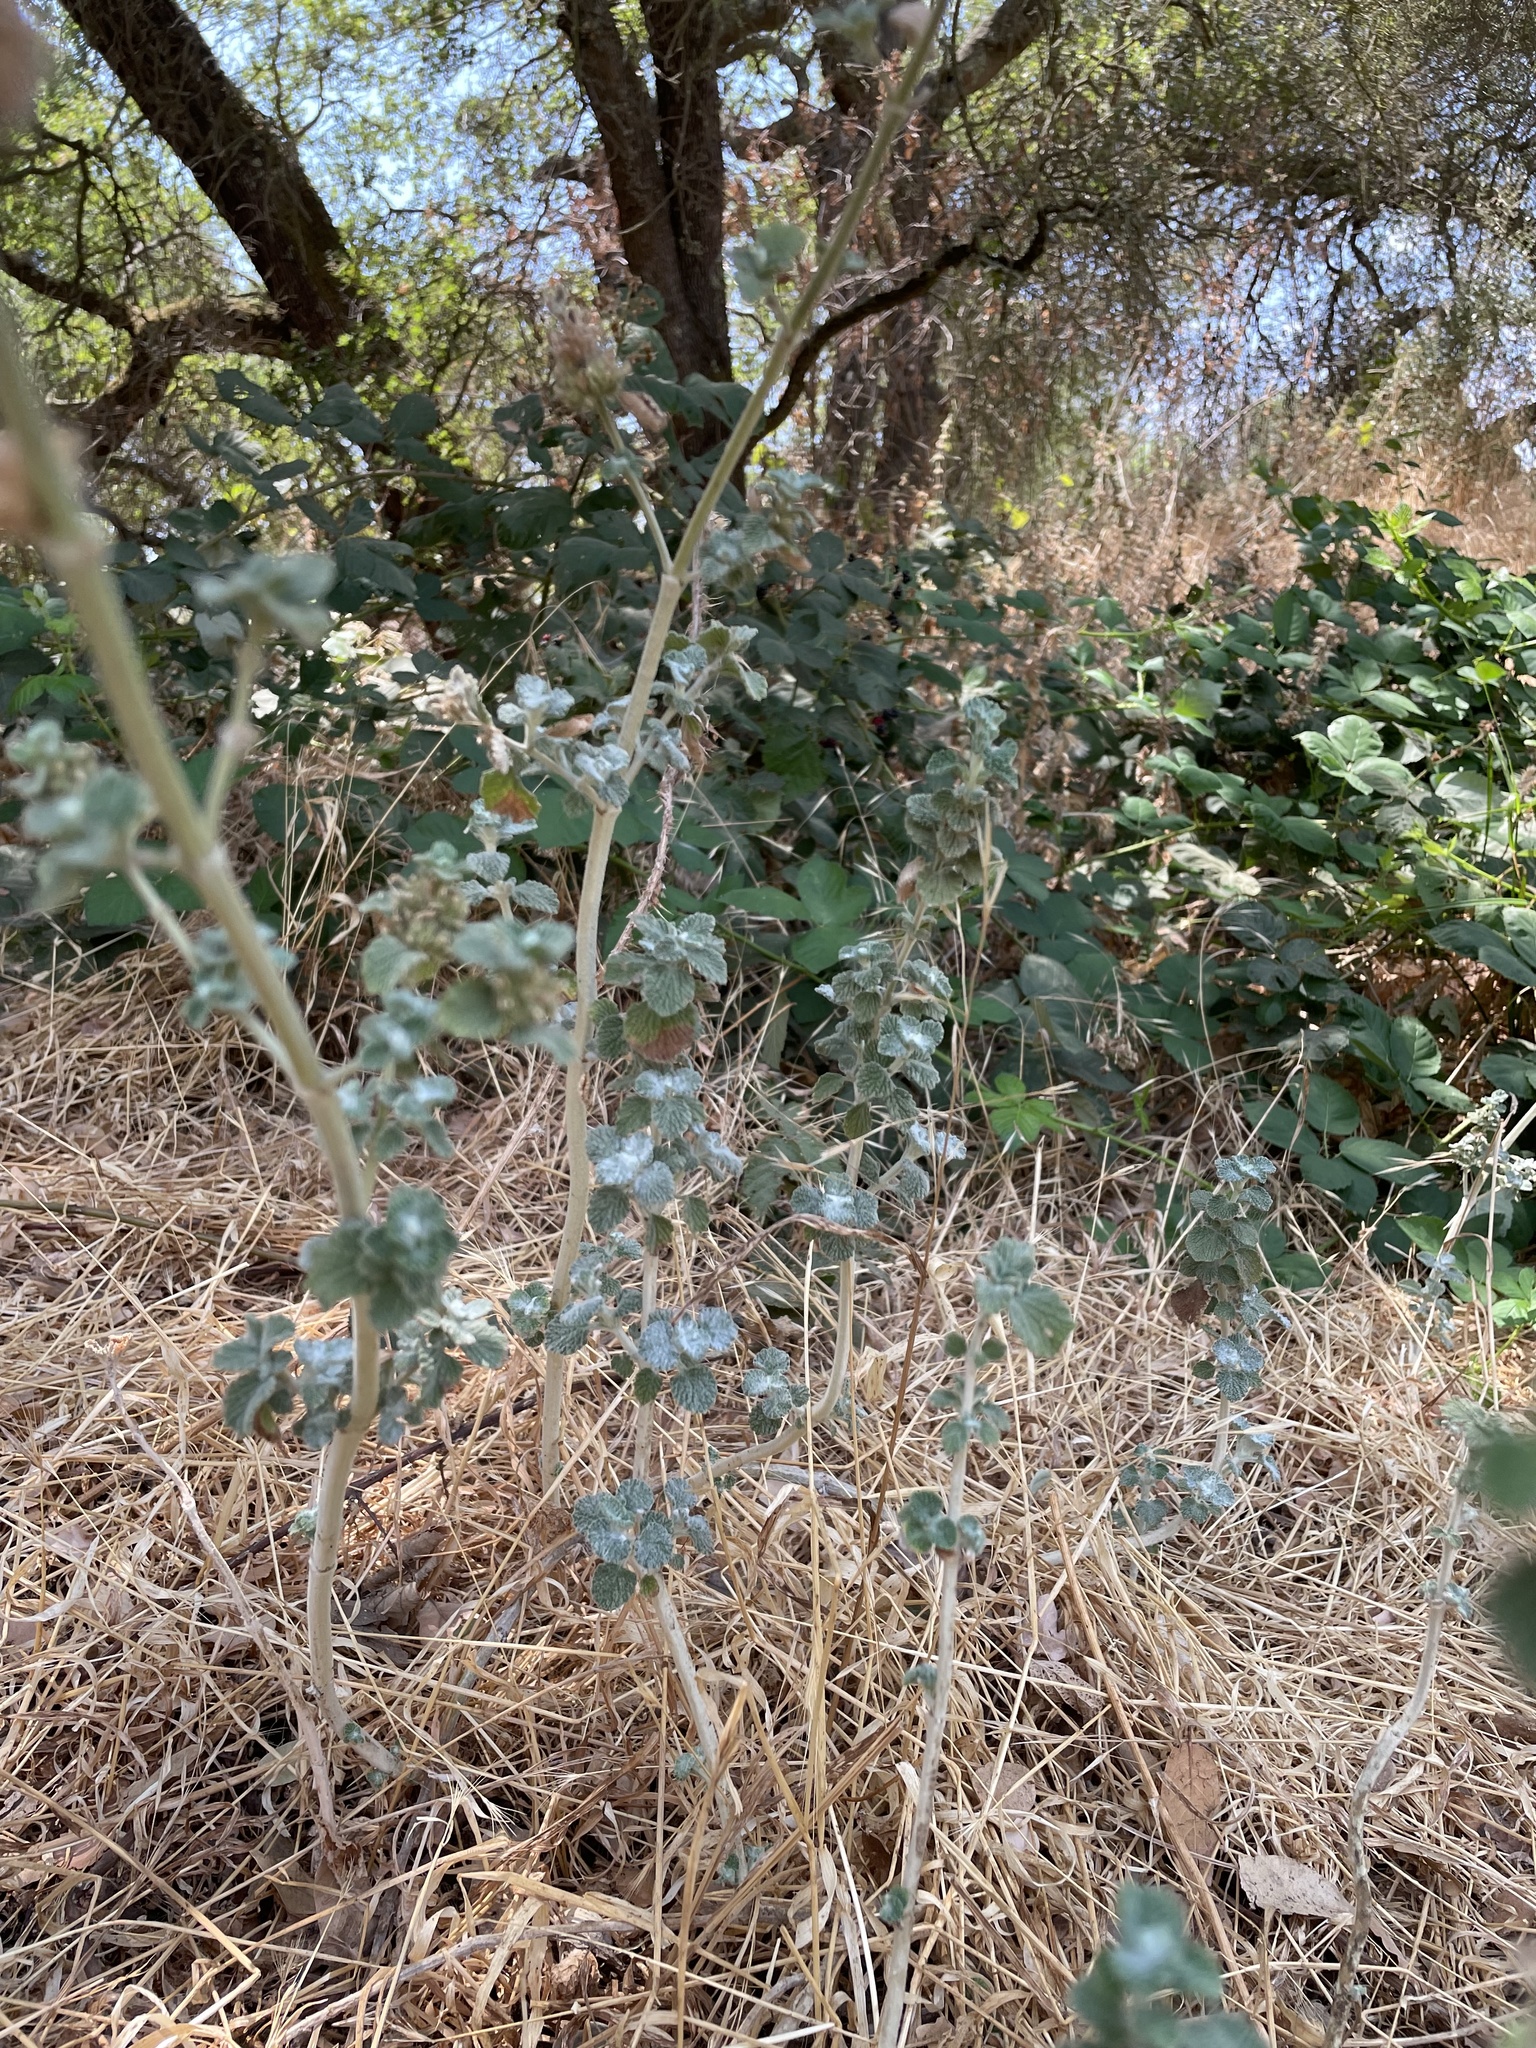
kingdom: Plantae
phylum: Tracheophyta
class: Magnoliopsida
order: Lamiales
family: Lamiaceae
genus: Marrubium
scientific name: Marrubium vulgare
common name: Horehound
